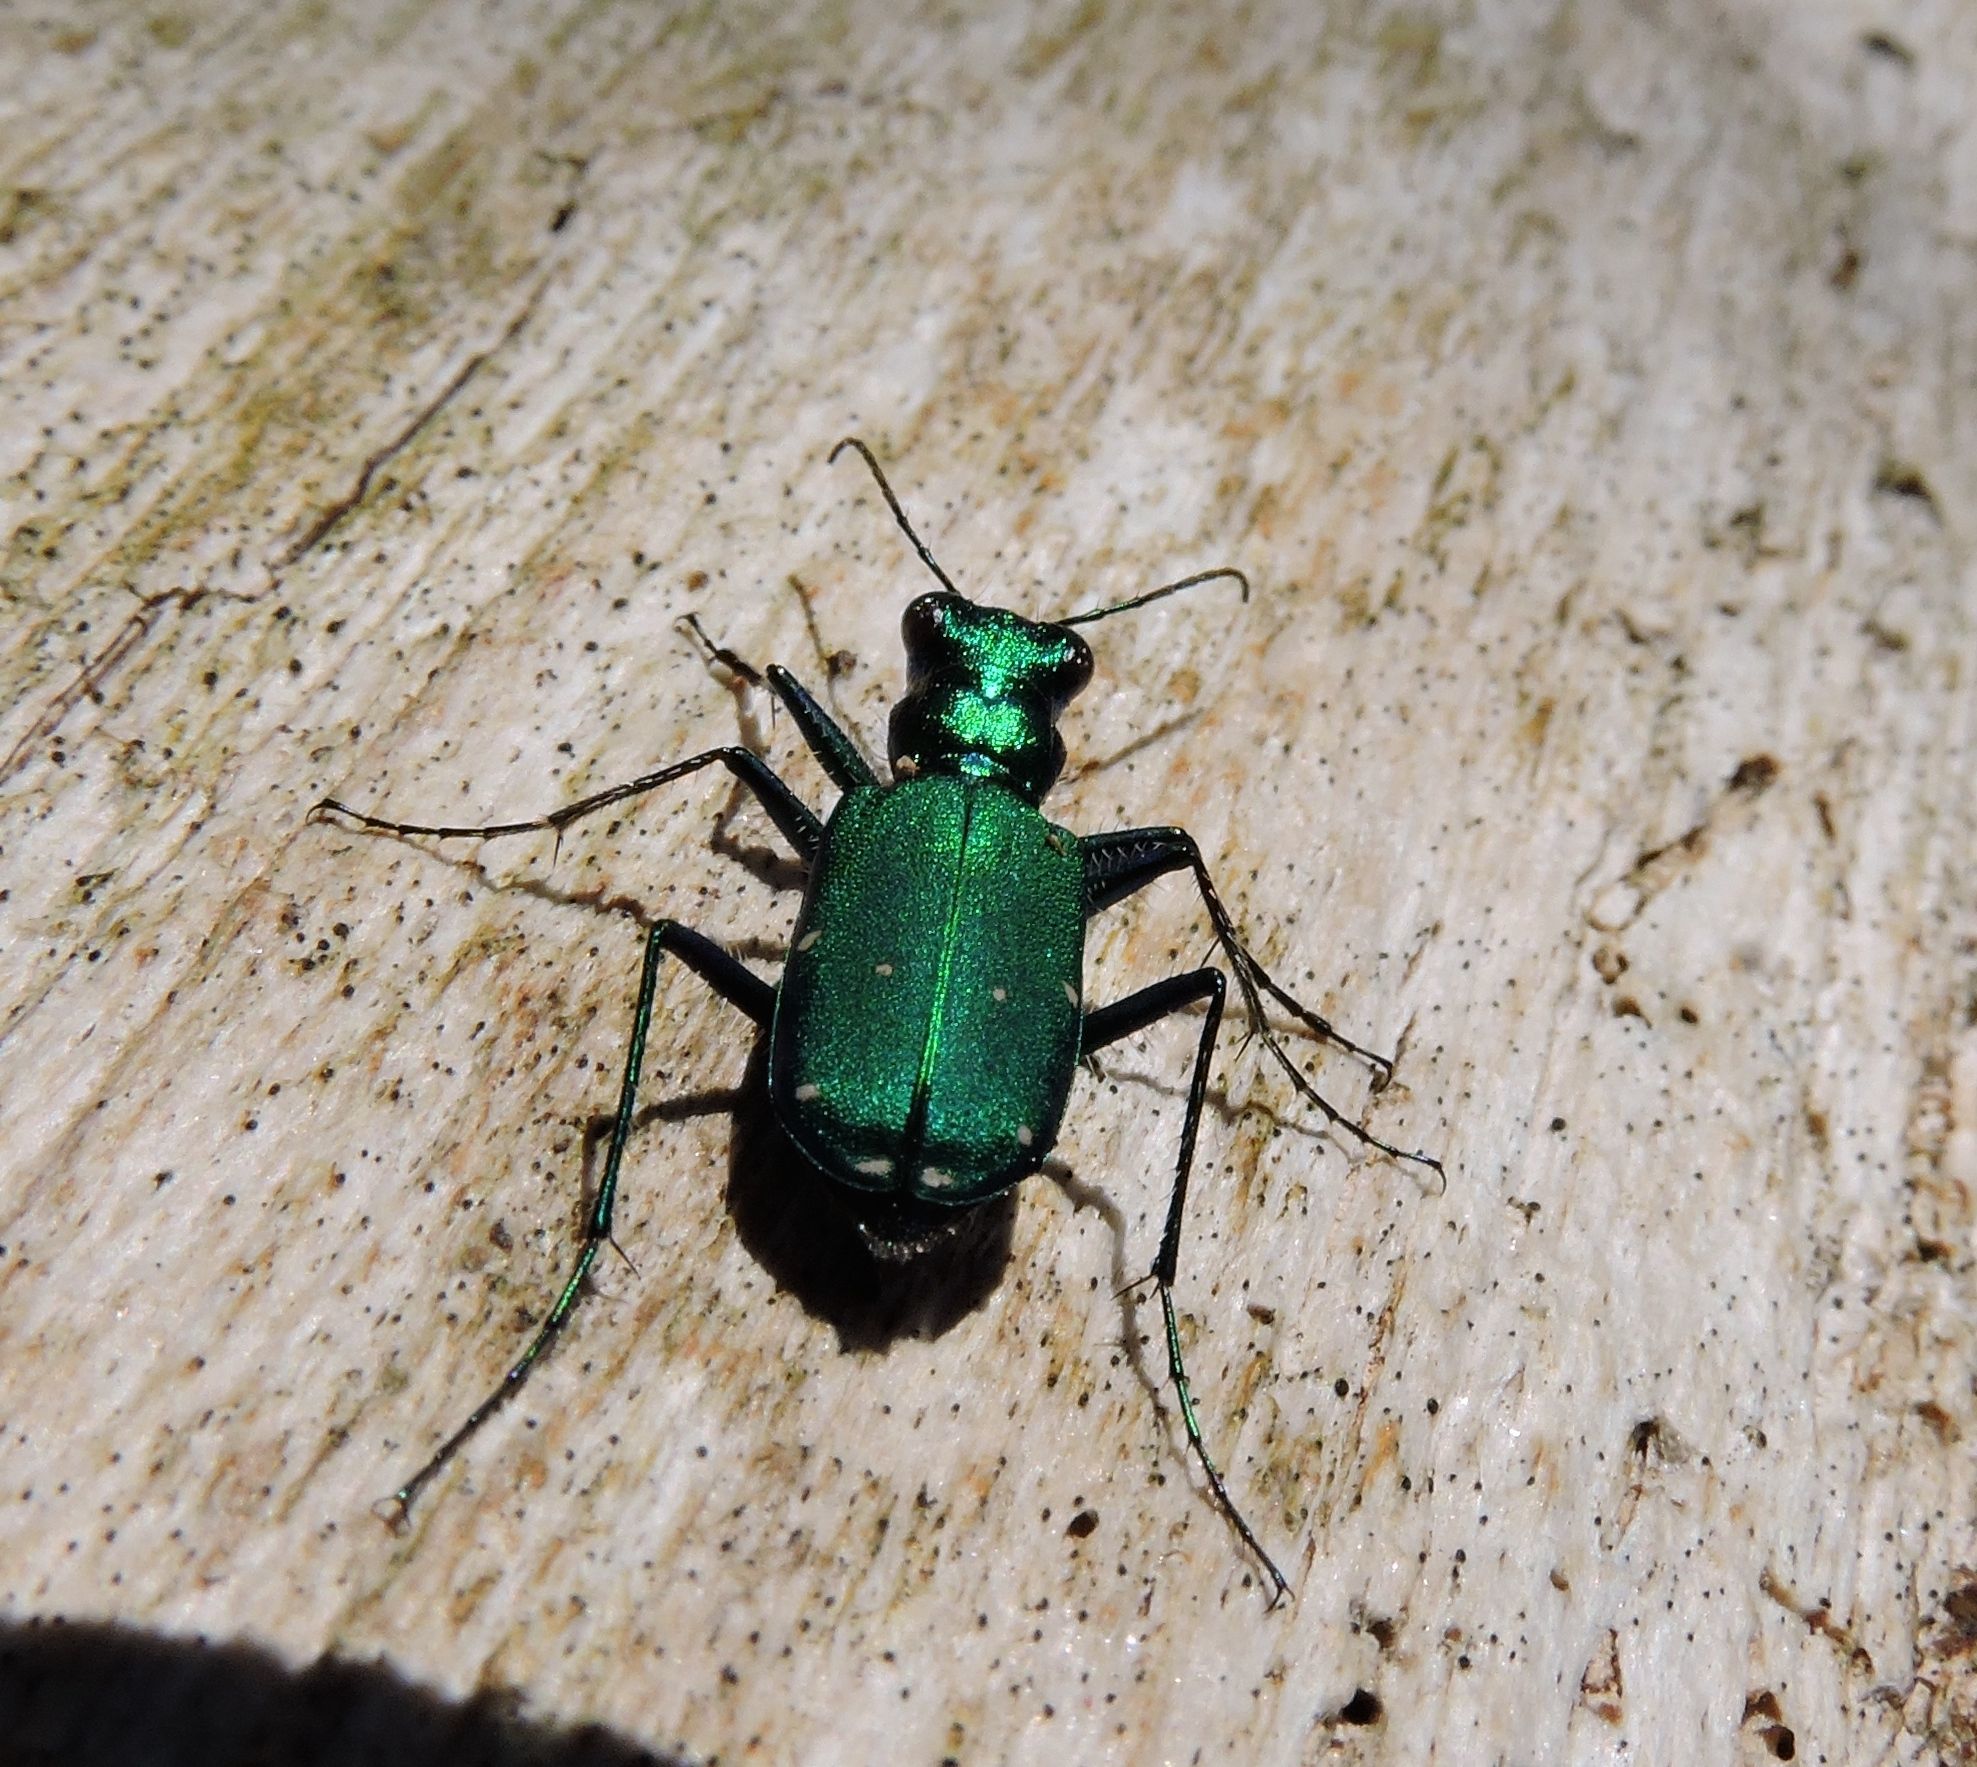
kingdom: Animalia
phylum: Arthropoda
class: Insecta
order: Coleoptera
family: Carabidae
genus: Cicindela
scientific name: Cicindela sexguttata
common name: Six-spotted tiger beetle
